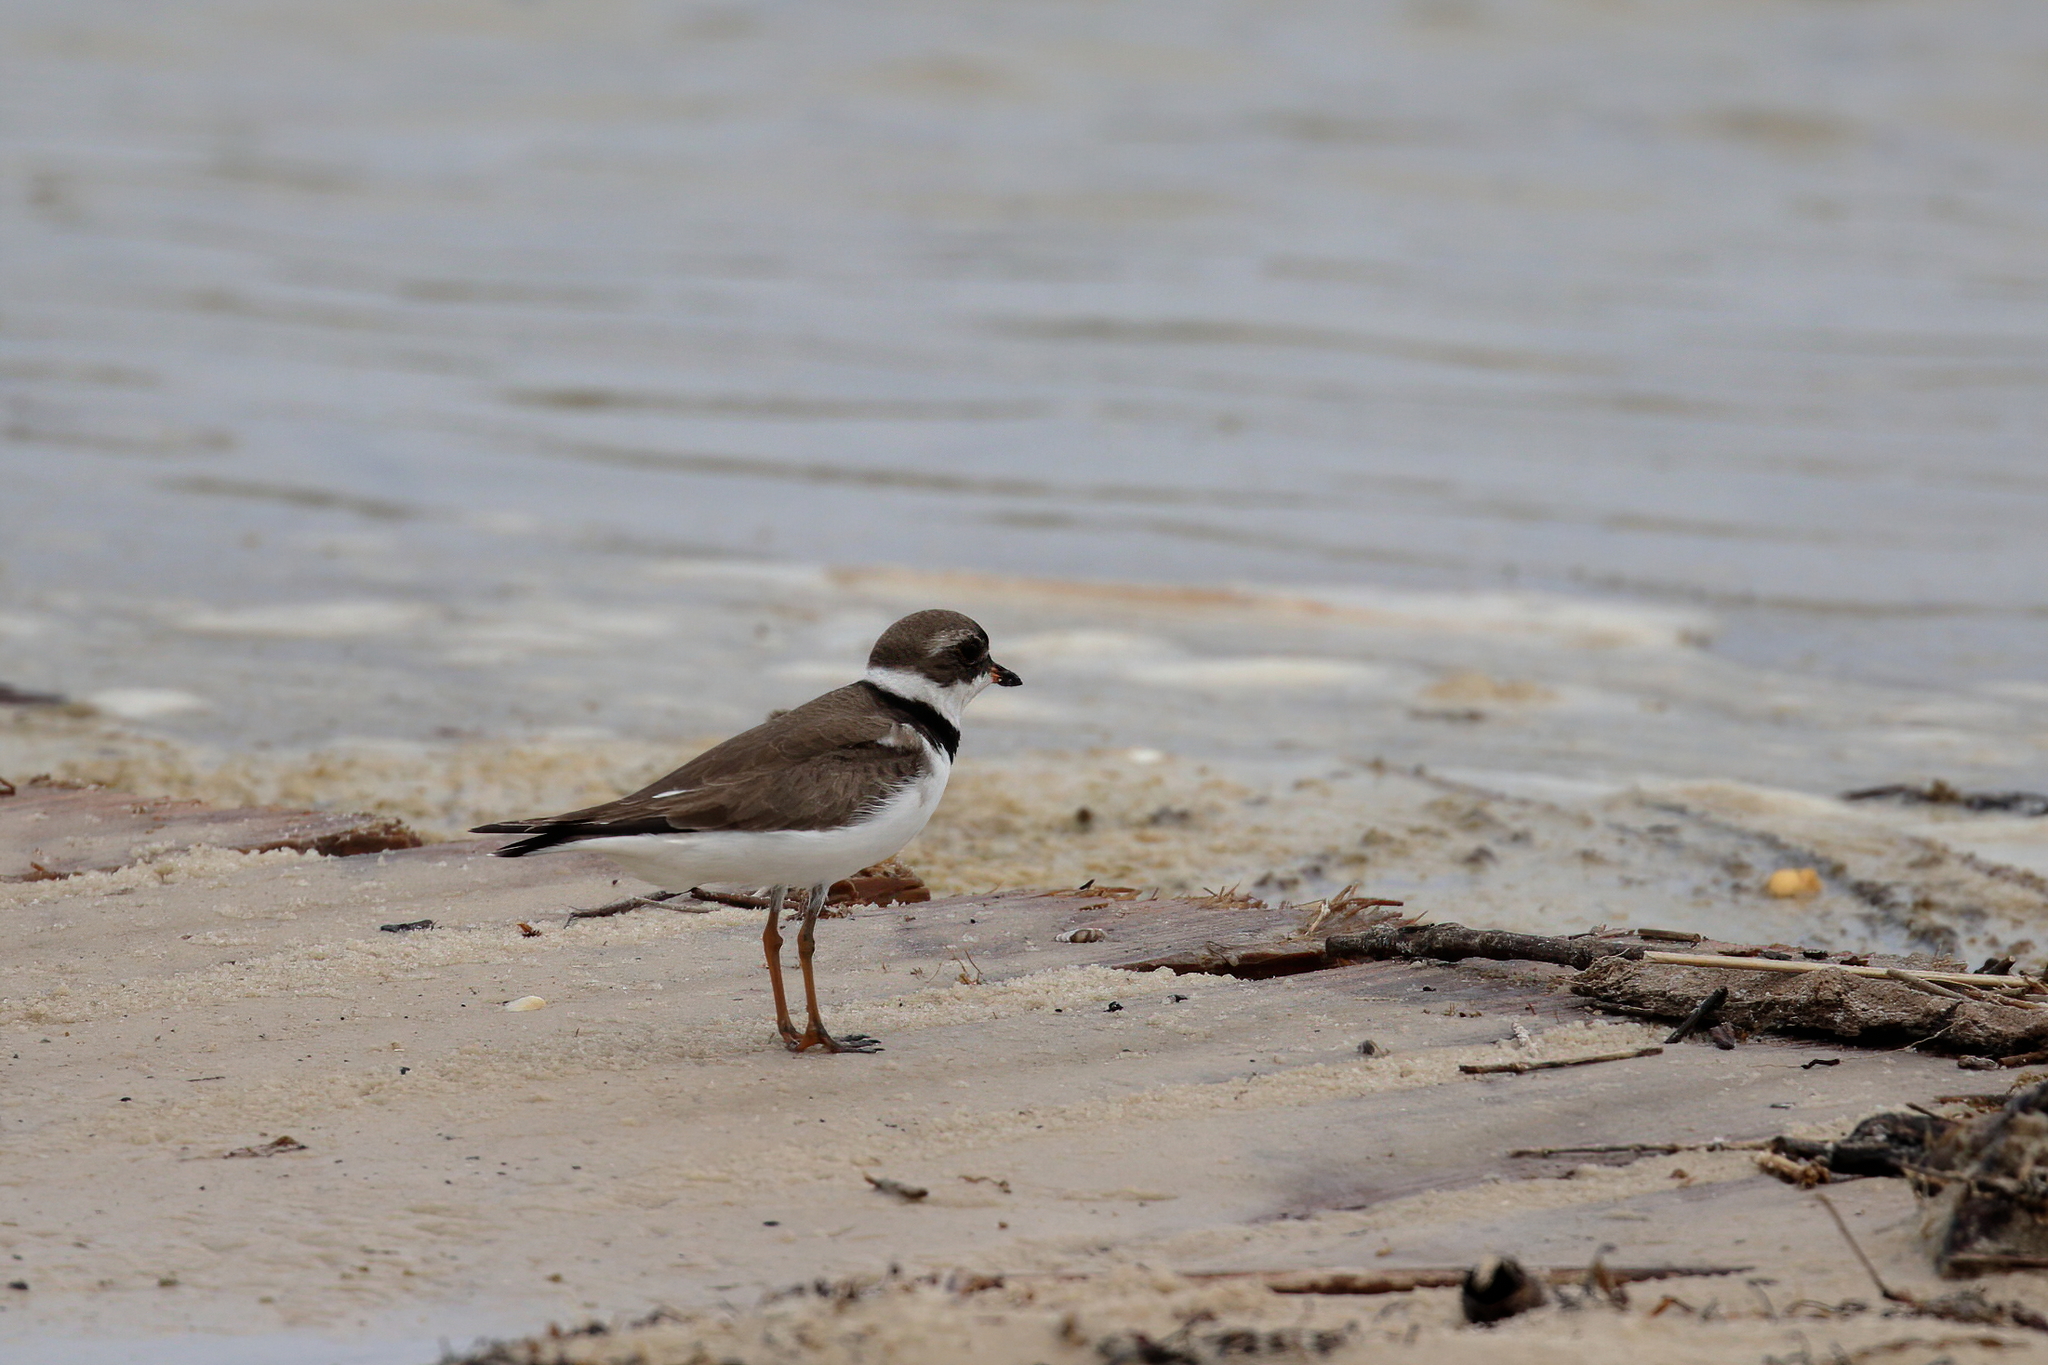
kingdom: Animalia
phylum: Chordata
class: Aves
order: Charadriiformes
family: Charadriidae
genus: Charadrius
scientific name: Charadrius semipalmatus
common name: Semipalmated plover
